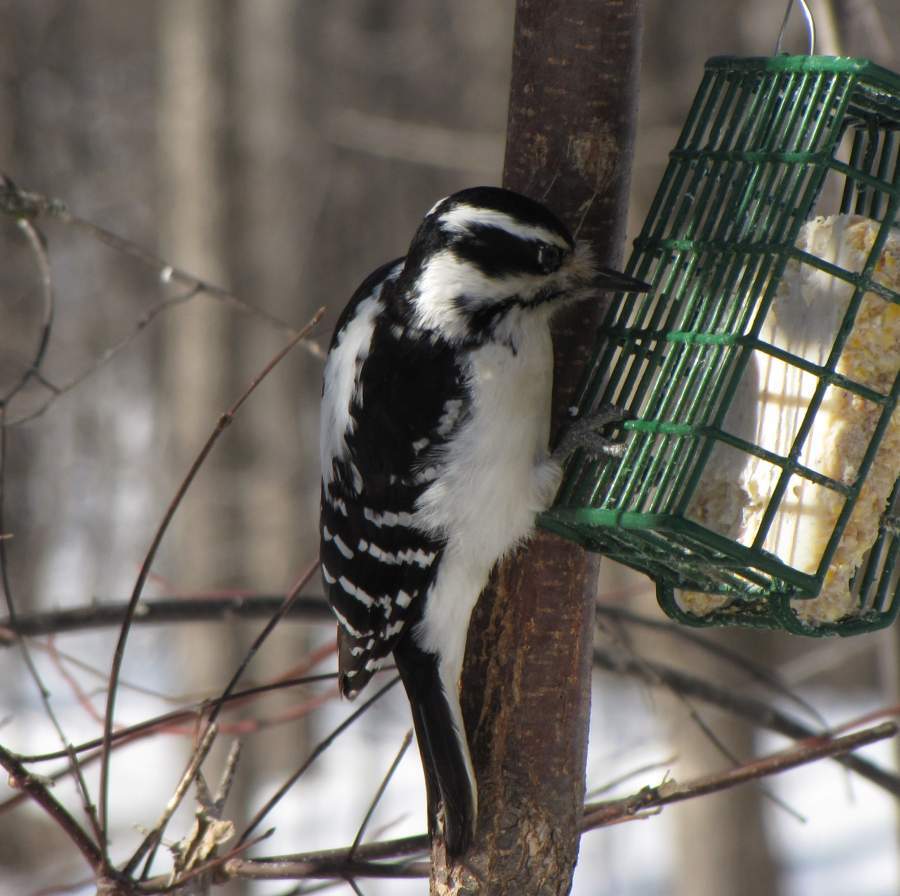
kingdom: Animalia
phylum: Chordata
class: Aves
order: Piciformes
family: Picidae
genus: Leuconotopicus
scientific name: Leuconotopicus villosus
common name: Hairy woodpecker
